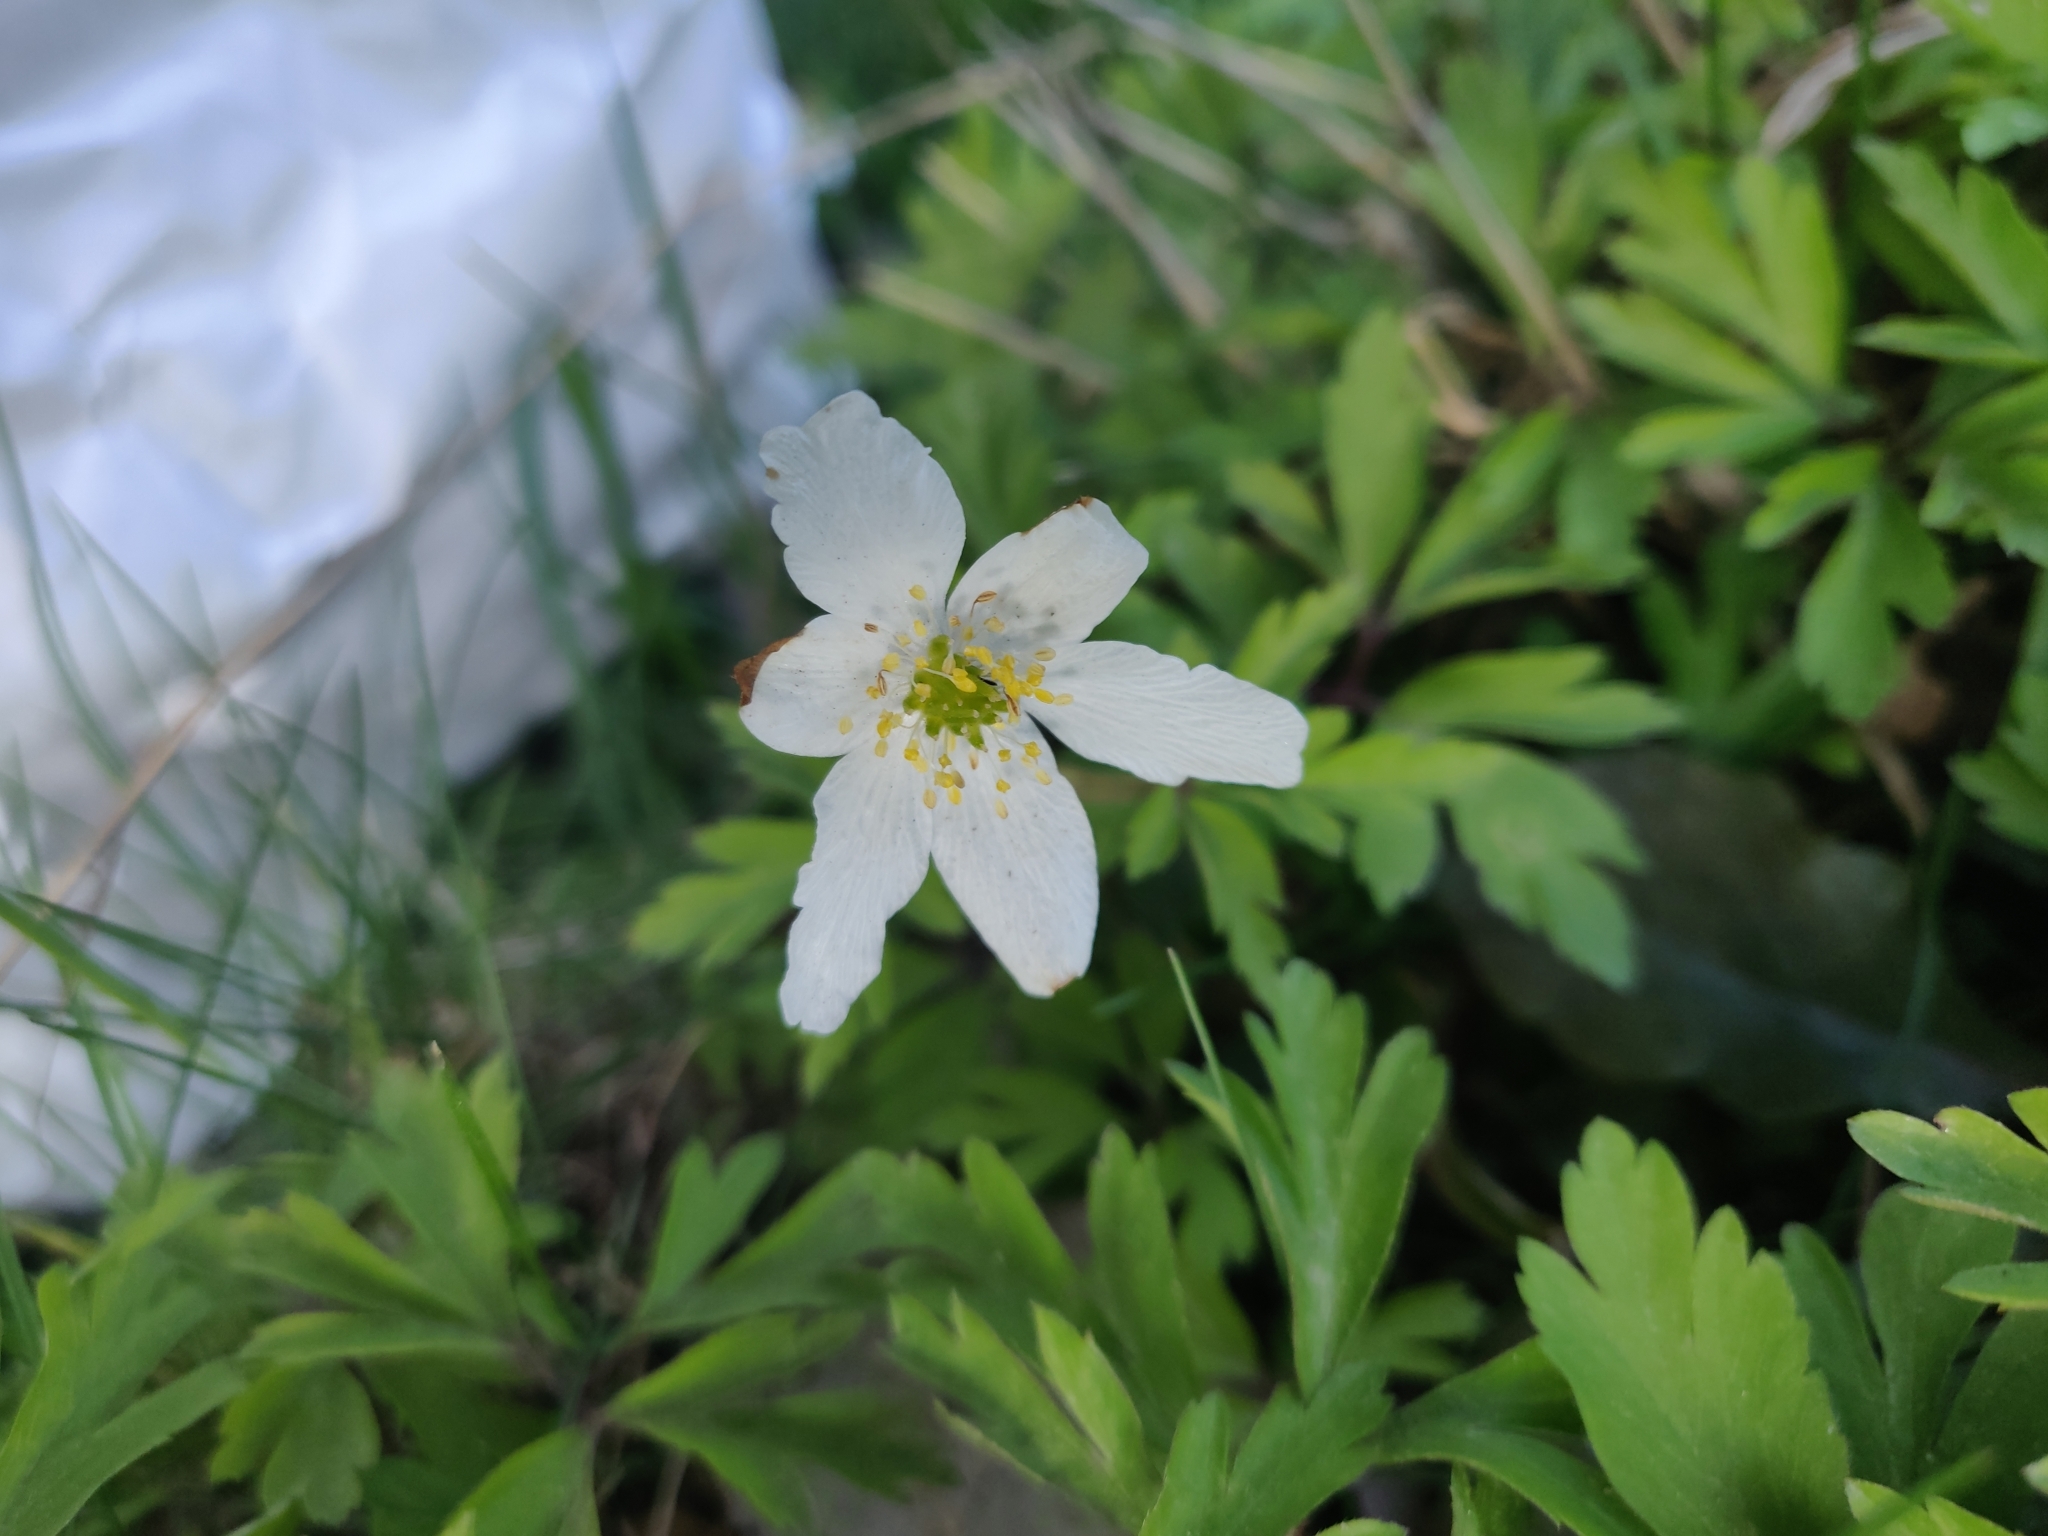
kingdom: Plantae
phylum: Tracheophyta
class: Magnoliopsida
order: Ranunculales
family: Ranunculaceae
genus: Anemone
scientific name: Anemone nemorosa
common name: Wood anemone
